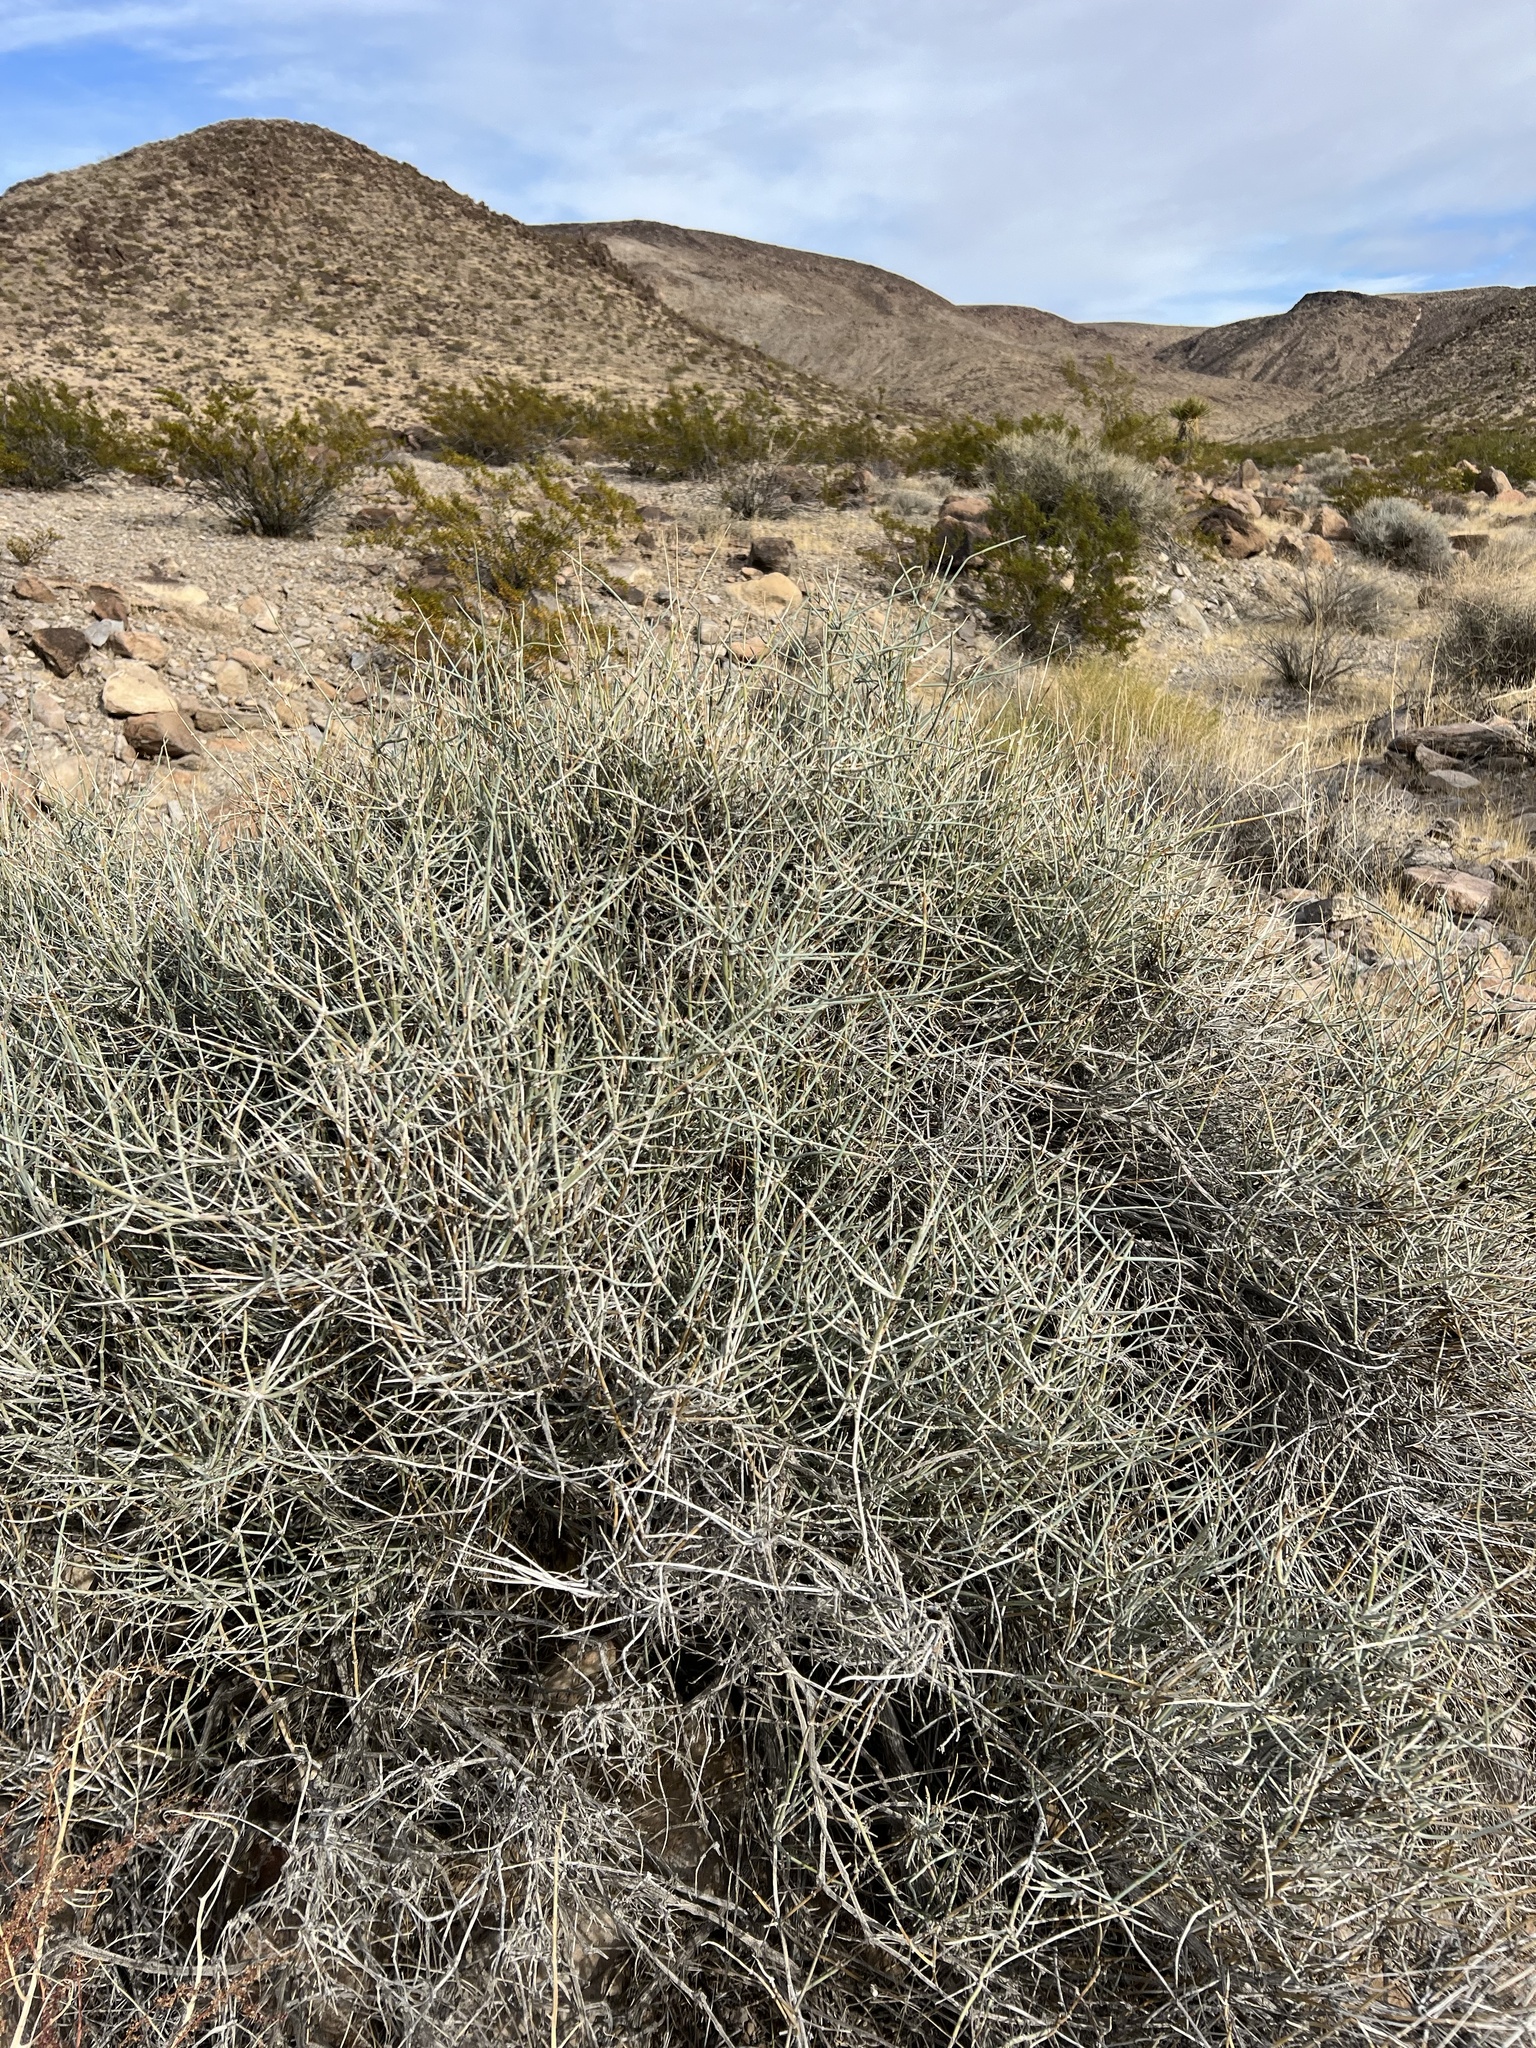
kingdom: Plantae
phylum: Tracheophyta
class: Gnetopsida
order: Ephedrales
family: Ephedraceae
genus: Ephedra
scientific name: Ephedra nevadensis
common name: Gray ephedra
